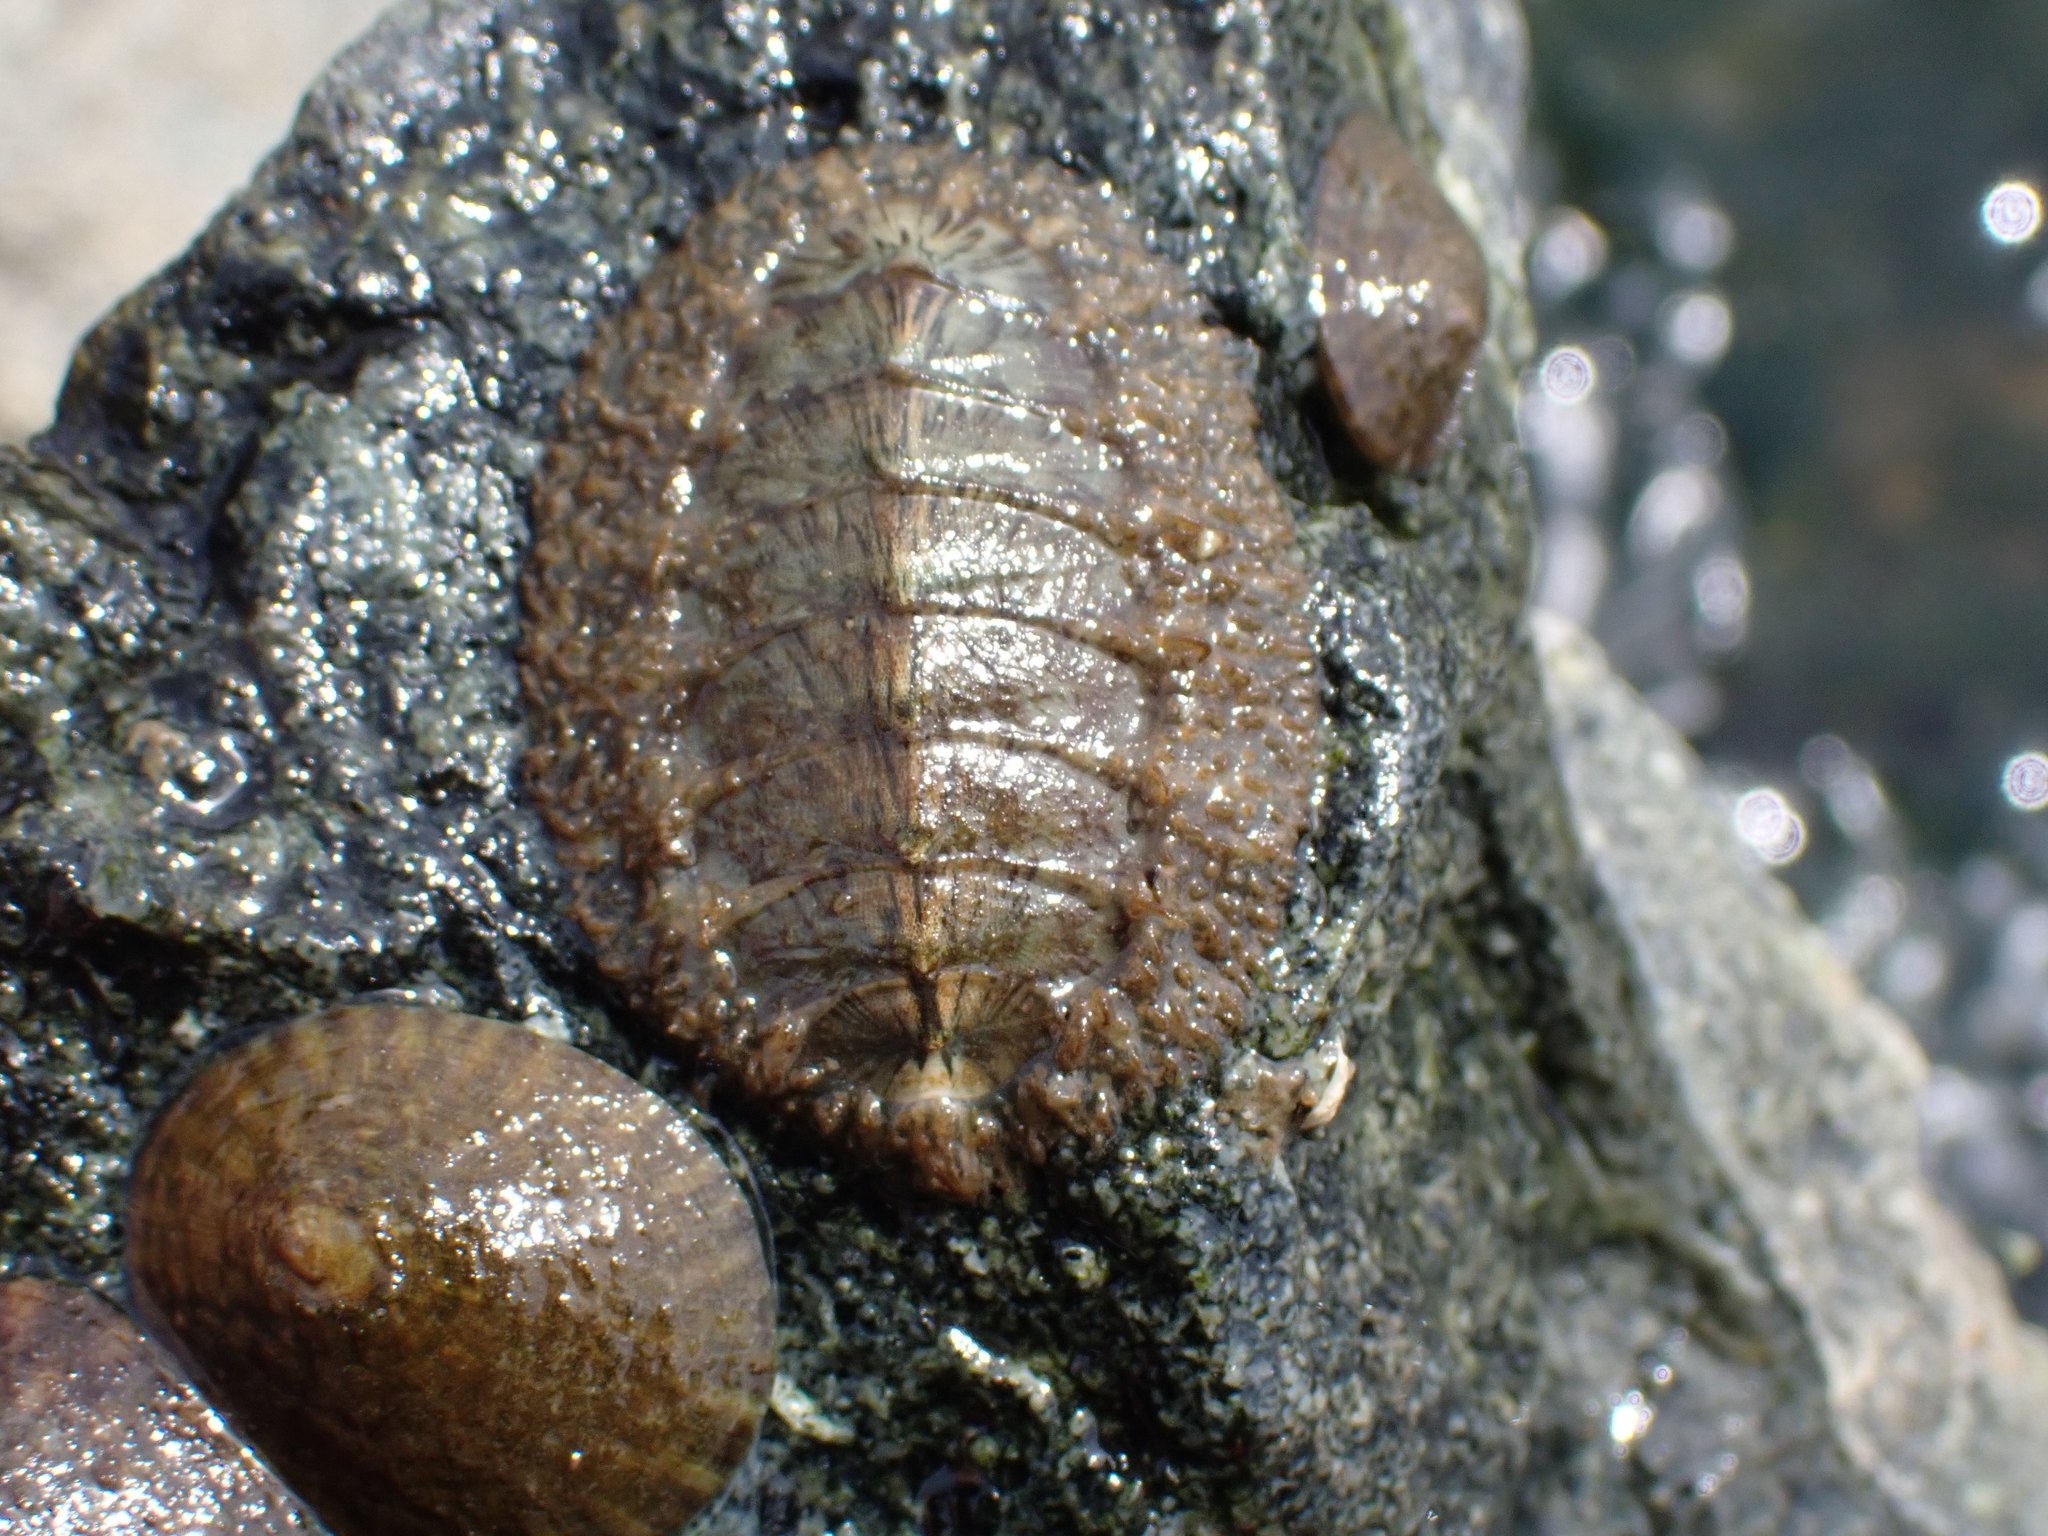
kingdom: Animalia
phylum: Mollusca
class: Polyplacophora
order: Chitonida
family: Mopaliidae
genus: Mopalia
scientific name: Mopalia muscosa
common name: Mossy chiton
